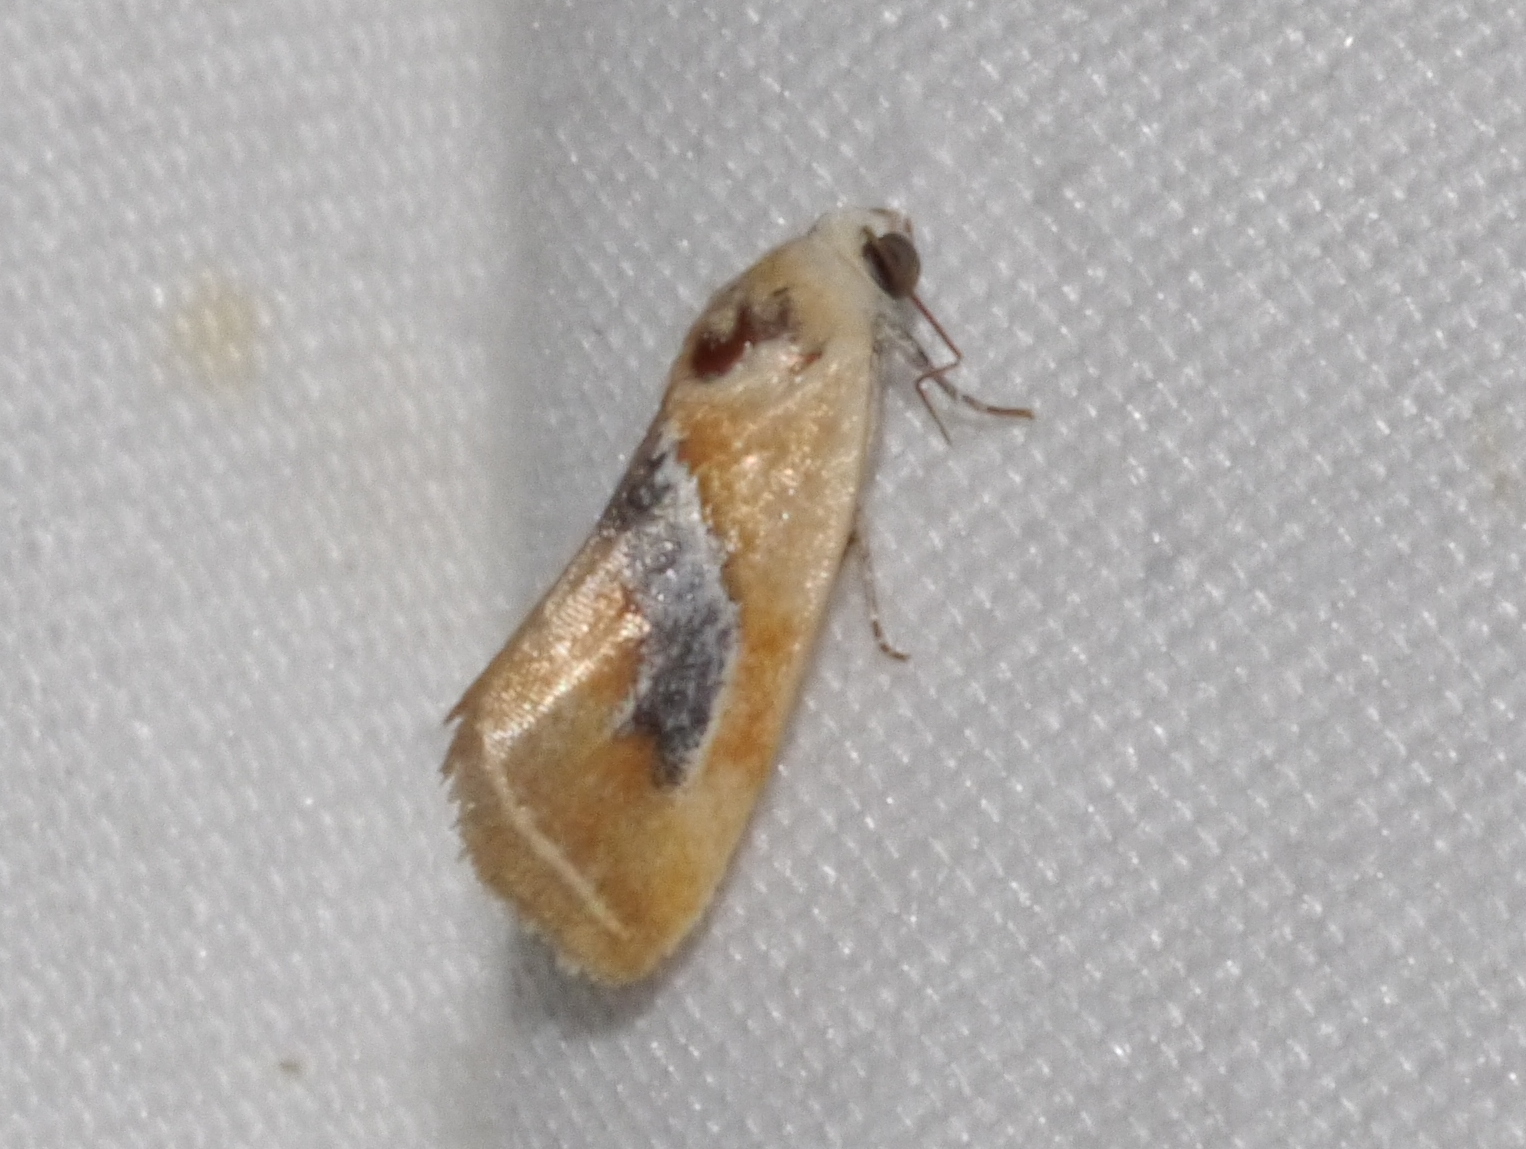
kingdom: Animalia
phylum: Arthropoda
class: Insecta
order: Lepidoptera
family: Noctuidae
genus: Ponometia
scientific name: Ponometia venustula
